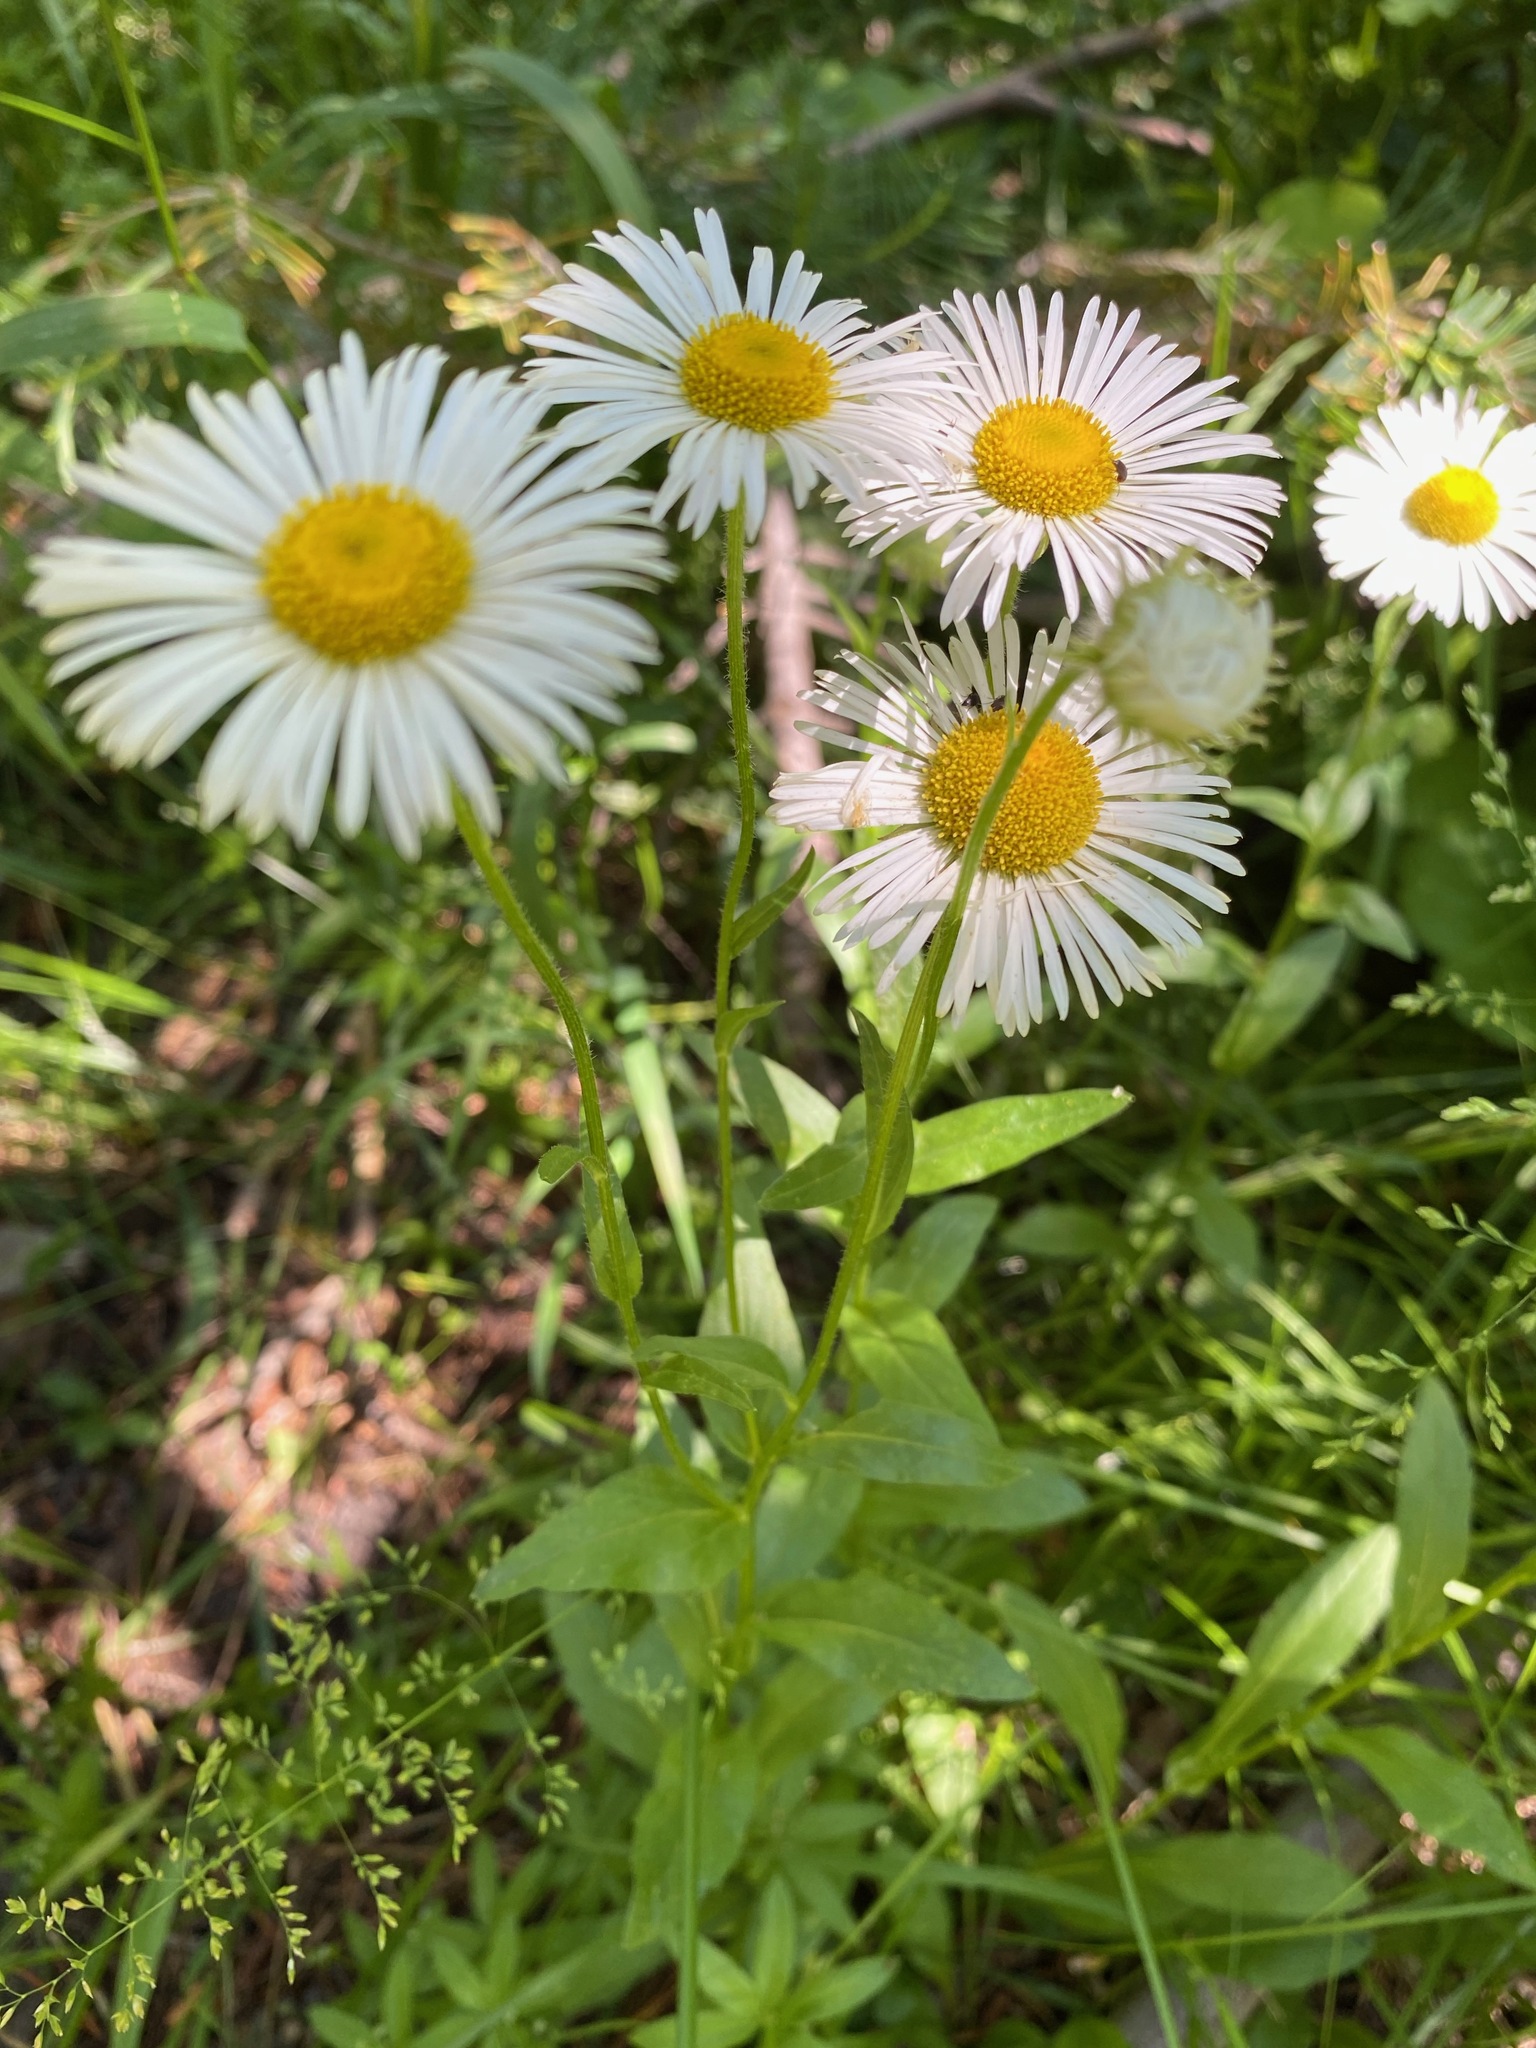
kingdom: Plantae
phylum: Tracheophyta
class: Magnoliopsida
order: Asterales
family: Asteraceae
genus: Erigeron
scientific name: Erigeron coulteri
